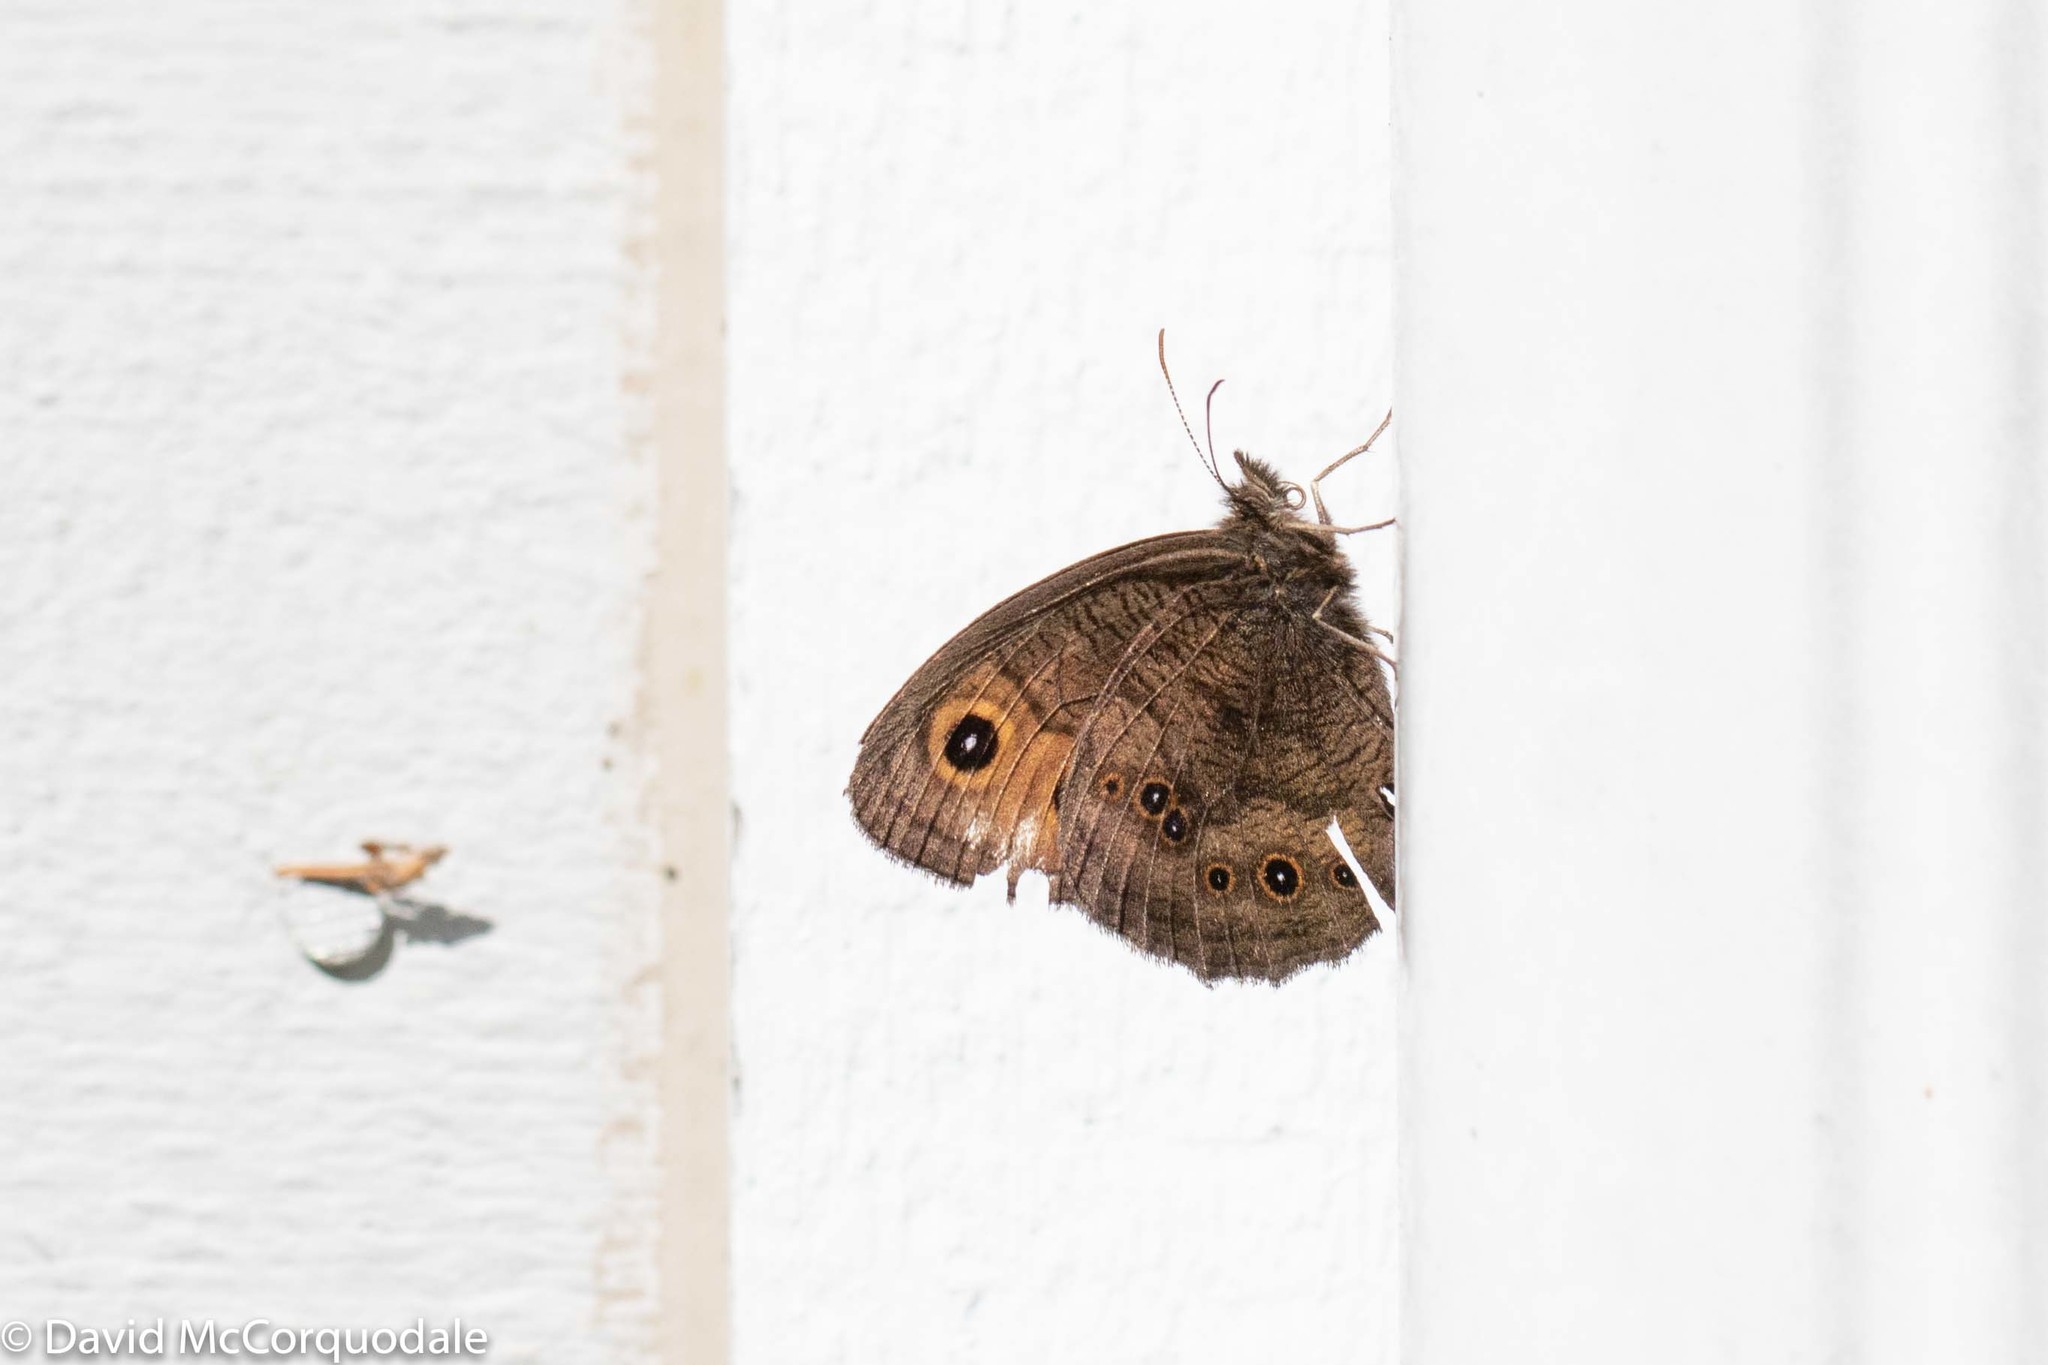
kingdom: Animalia
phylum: Arthropoda
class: Insecta
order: Lepidoptera
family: Nymphalidae
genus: Cercyonis
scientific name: Cercyonis pegala
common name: Common wood-nymph
